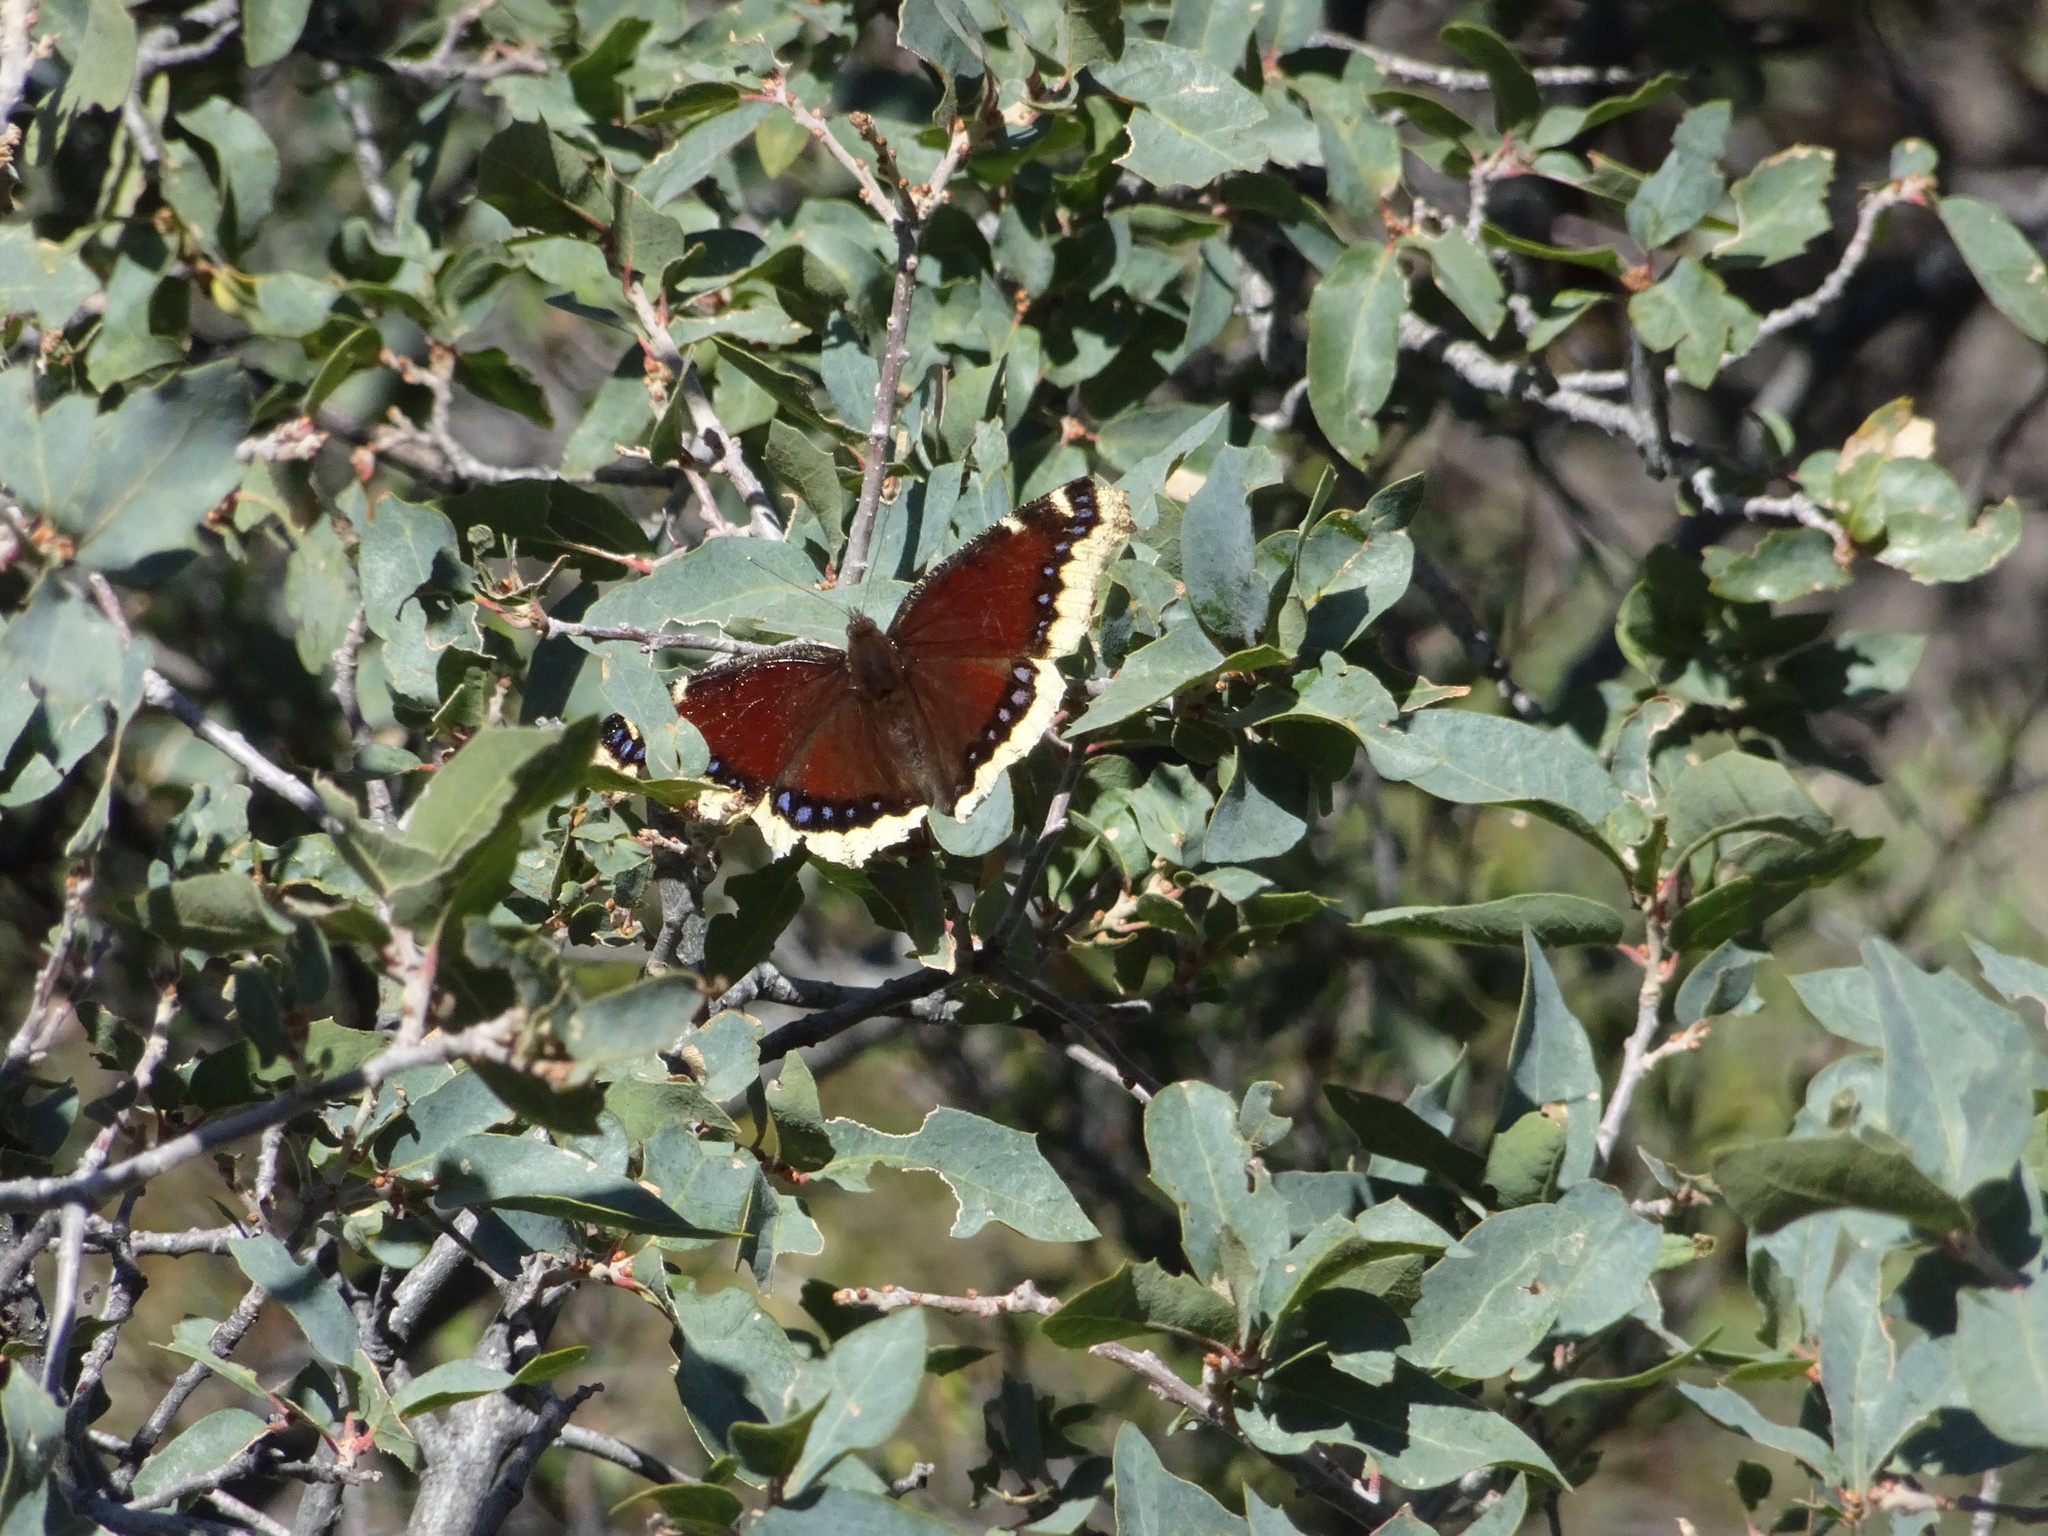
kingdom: Animalia
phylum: Arthropoda
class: Insecta
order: Lepidoptera
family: Nymphalidae
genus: Nymphalis
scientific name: Nymphalis antiopa
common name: Camberwell beauty
